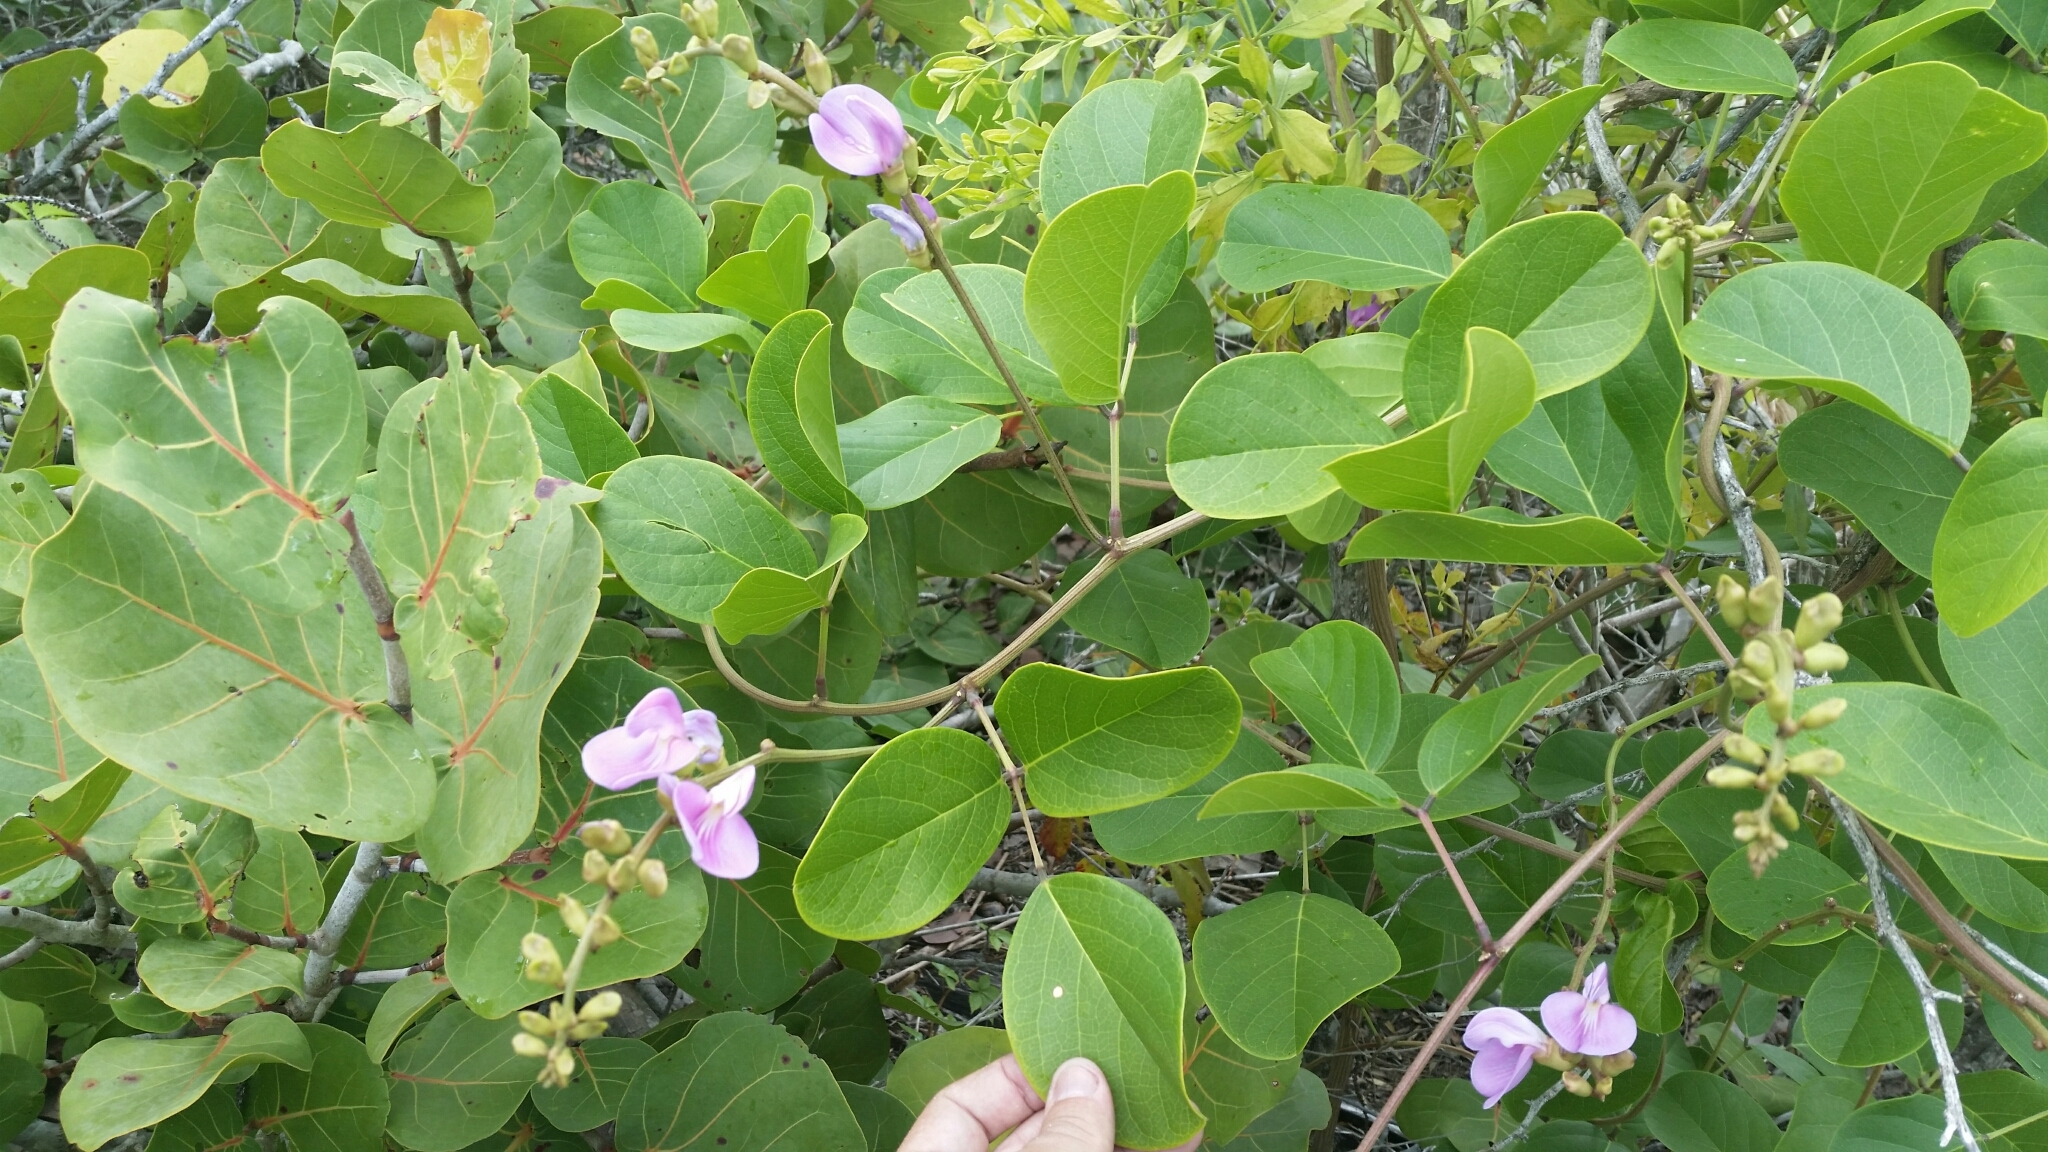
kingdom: Plantae
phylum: Tracheophyta
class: Magnoliopsida
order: Fabales
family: Fabaceae
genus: Canavalia
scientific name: Canavalia rosea
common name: Beach-bean
